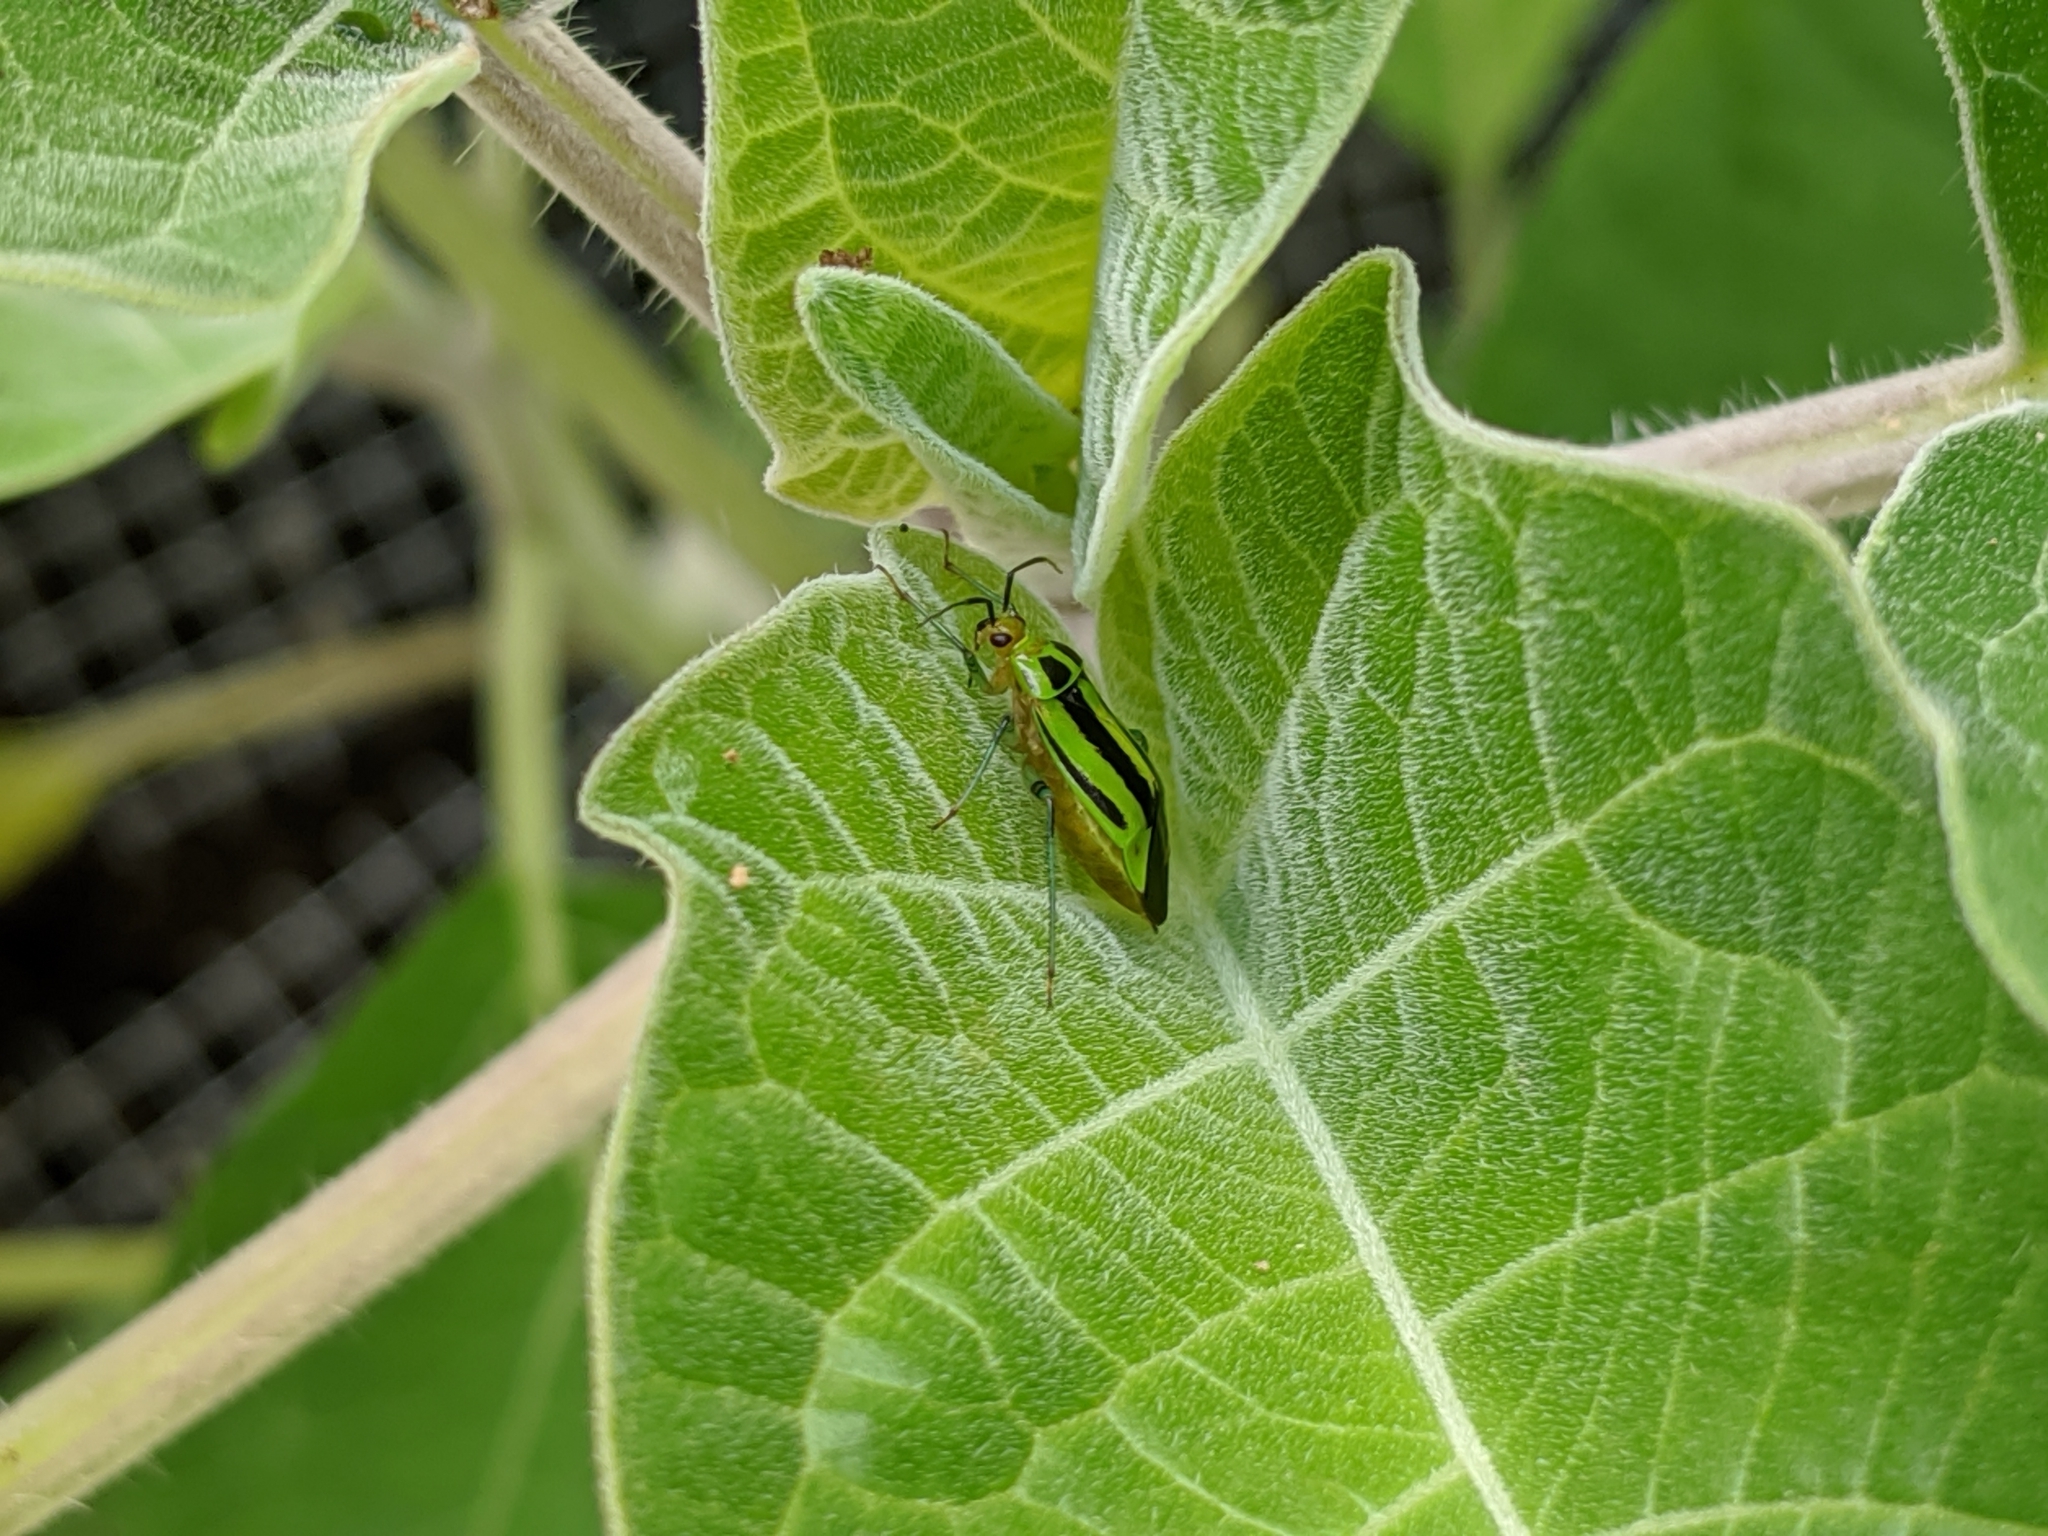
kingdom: Animalia
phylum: Arthropoda
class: Insecta
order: Hemiptera
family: Miridae
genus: Poecilocapsus
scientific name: Poecilocapsus lineatus
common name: Four-lined plant bug
